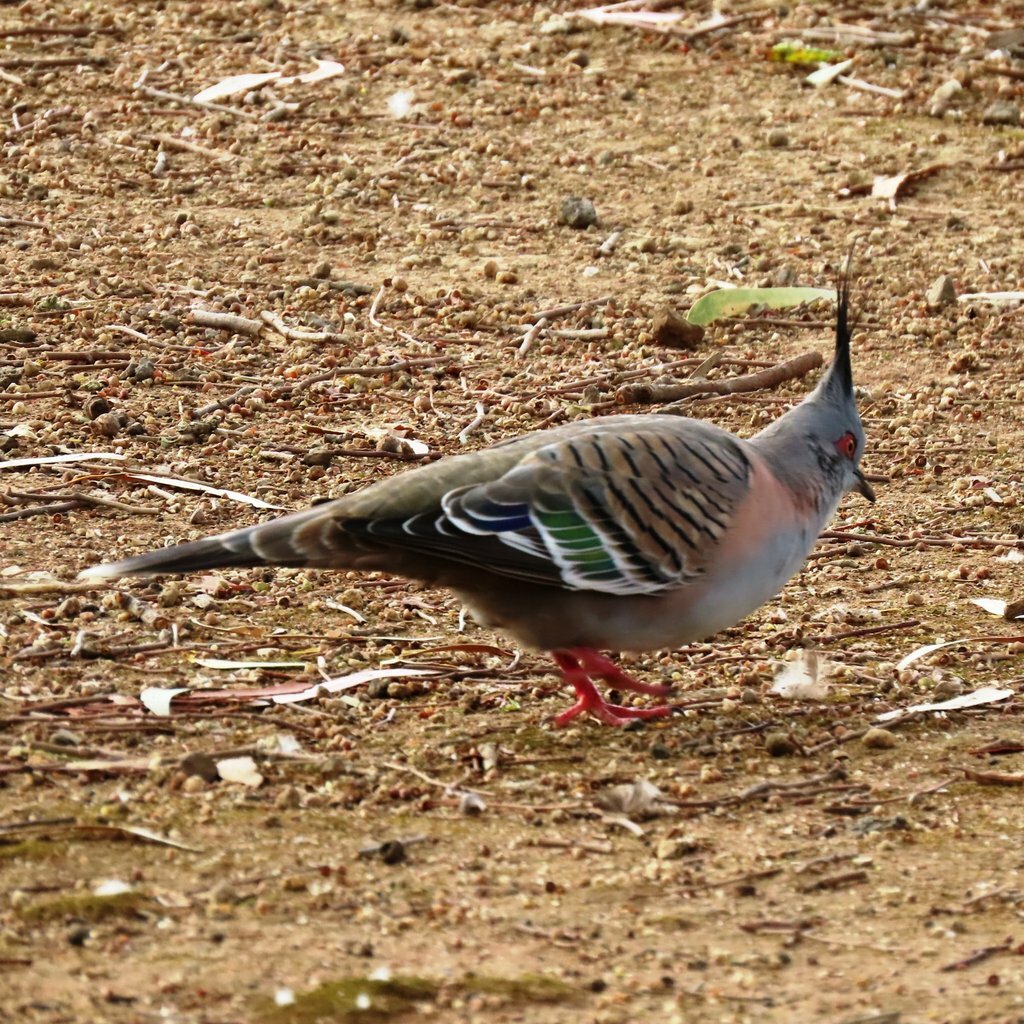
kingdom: Animalia
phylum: Chordata
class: Aves
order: Columbiformes
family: Columbidae
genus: Ocyphaps
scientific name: Ocyphaps lophotes
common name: Crested pigeon
